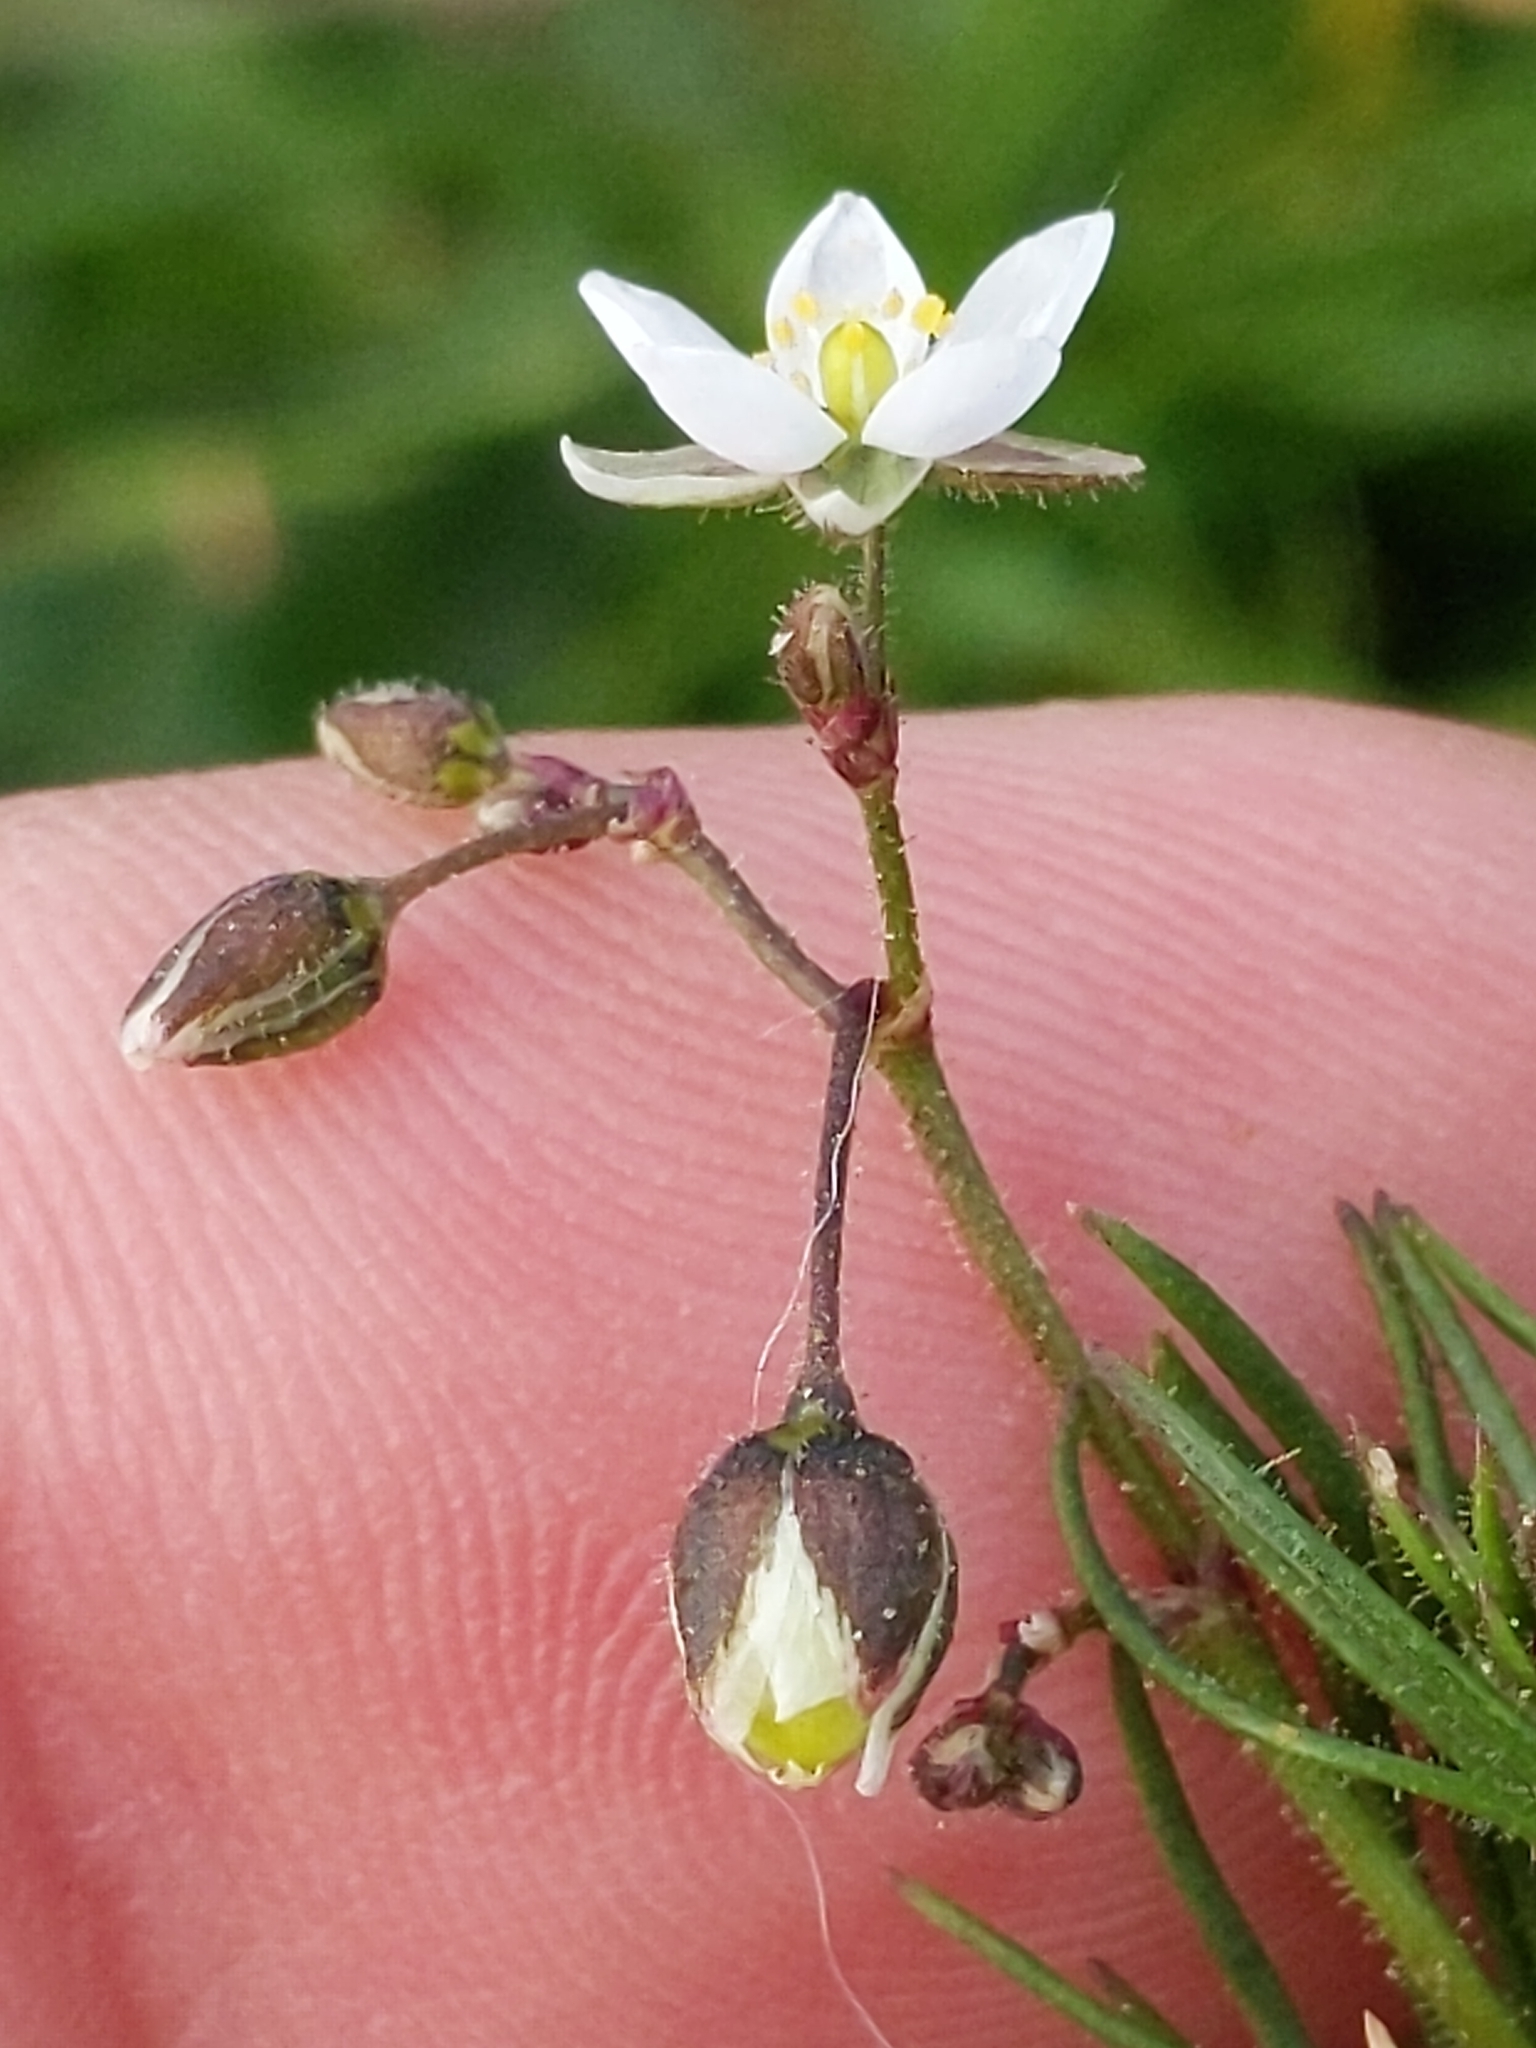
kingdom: Plantae
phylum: Tracheophyta
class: Magnoliopsida
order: Caryophyllales
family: Caryophyllaceae
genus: Spergula
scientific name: Spergula arvensis
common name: Corn spurrey
